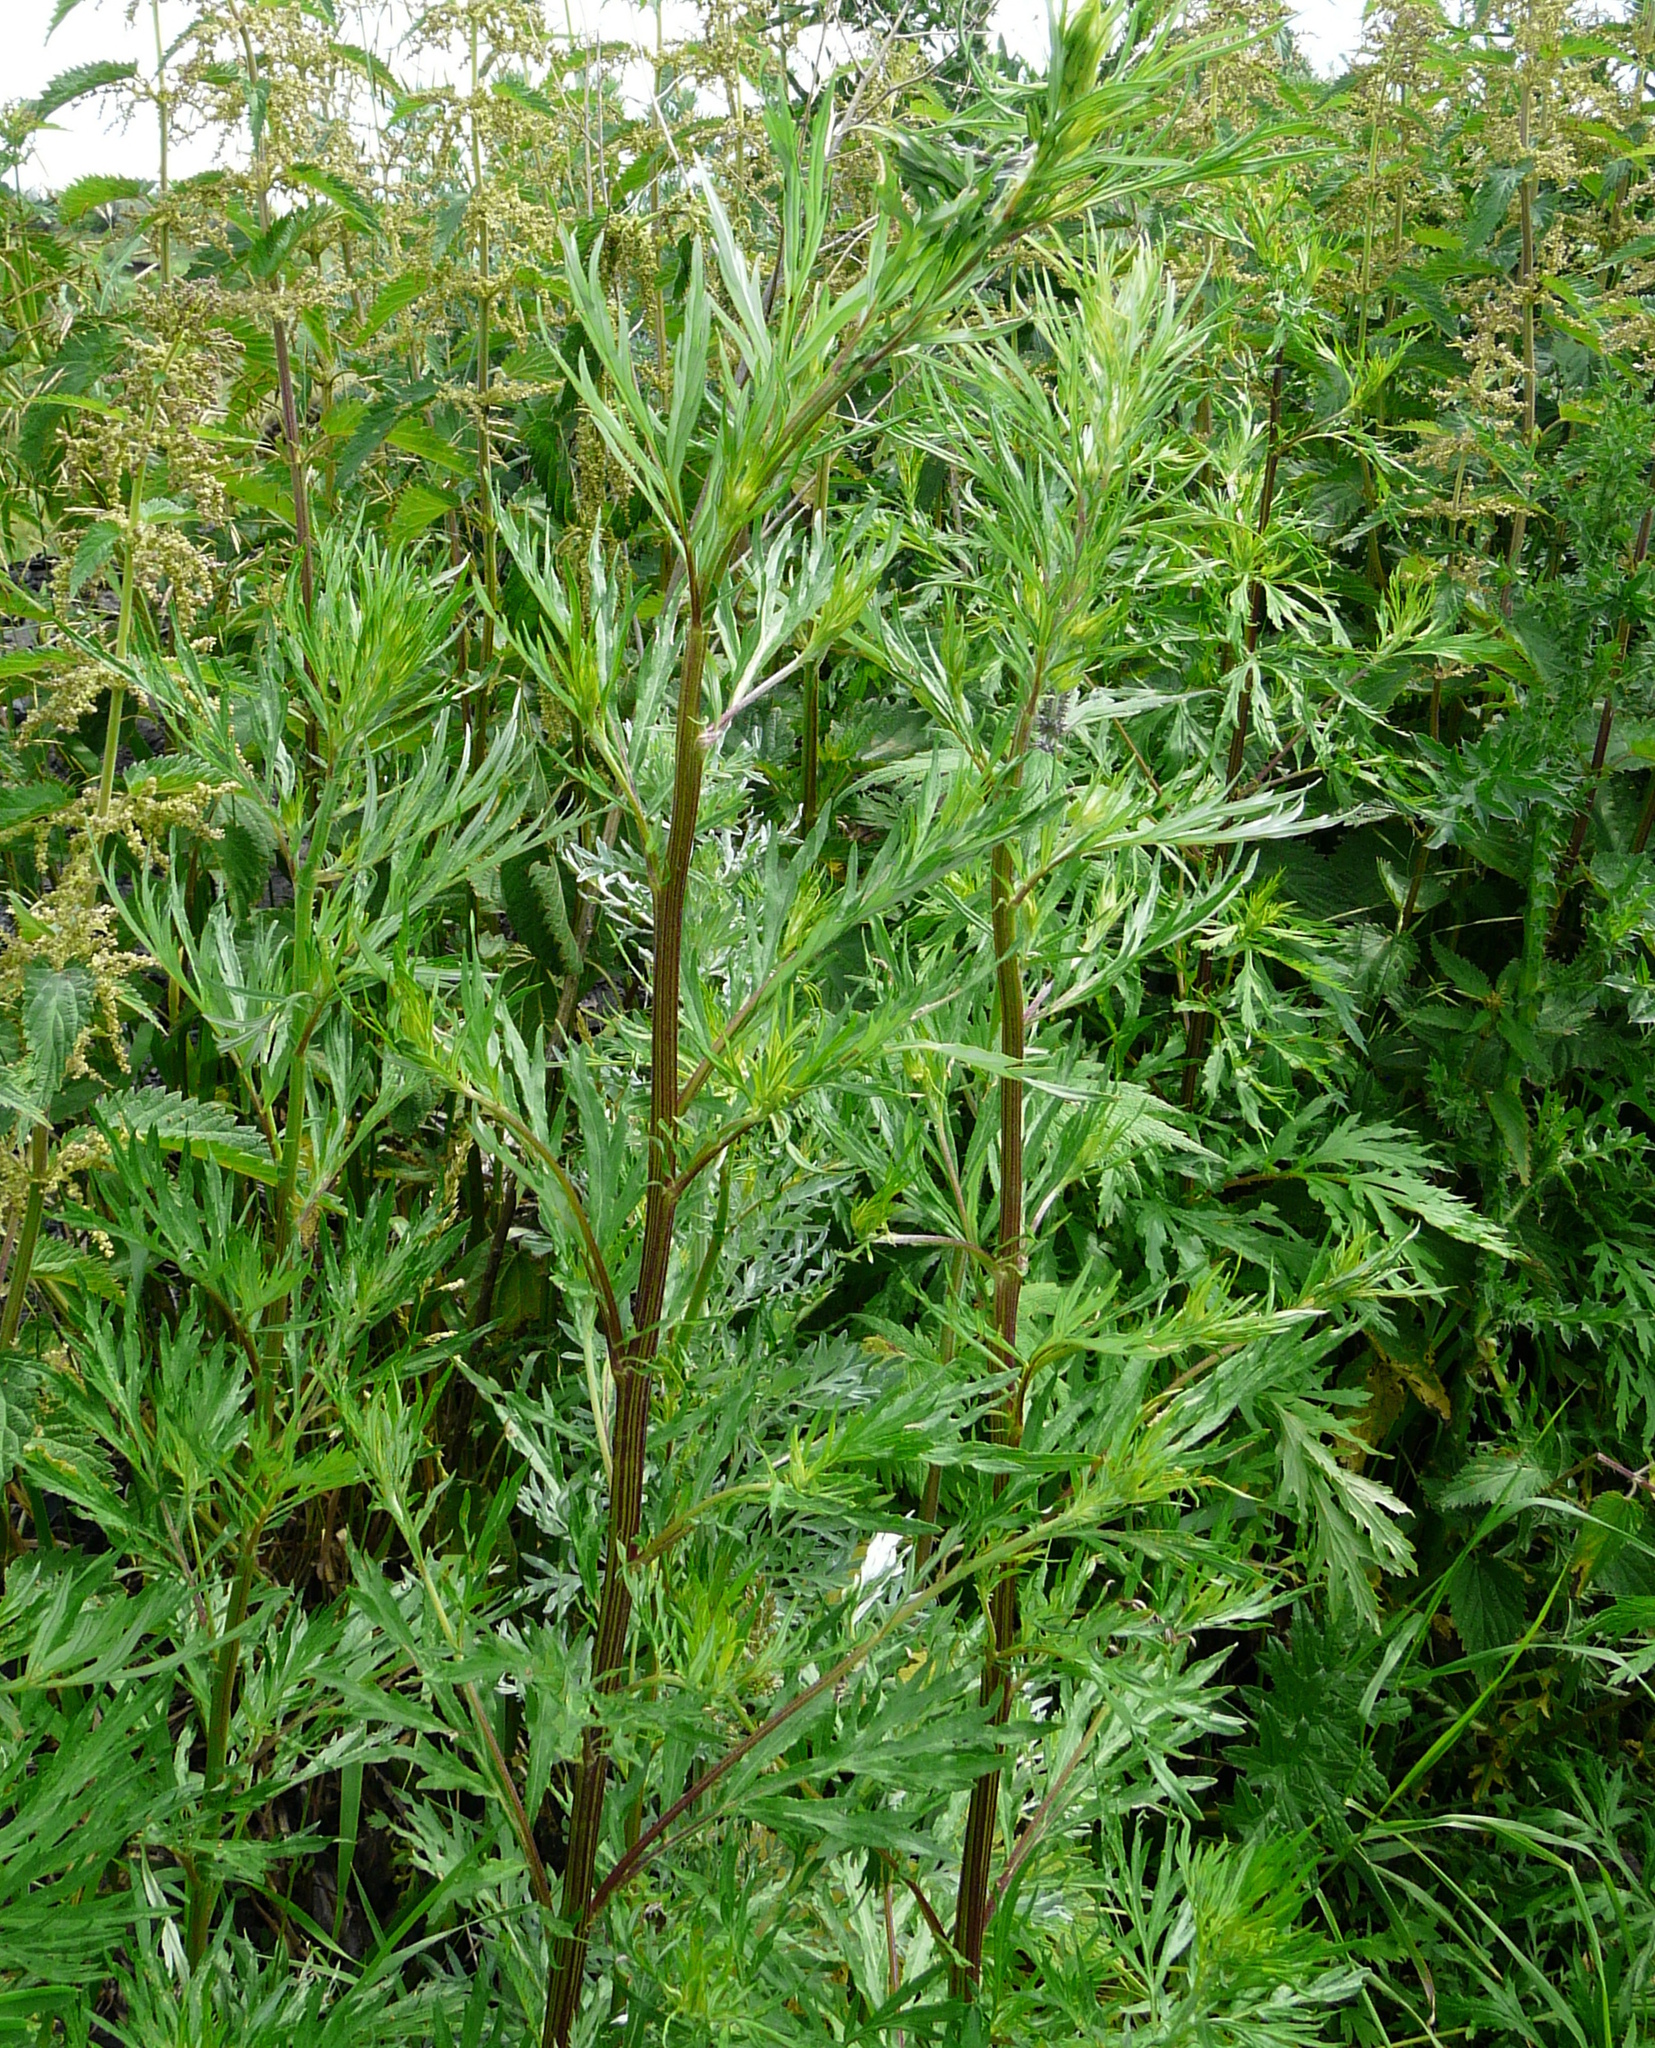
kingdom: Plantae
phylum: Tracheophyta
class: Magnoliopsida
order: Asterales
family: Asteraceae
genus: Artemisia
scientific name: Artemisia vulgaris
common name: Mugwort
